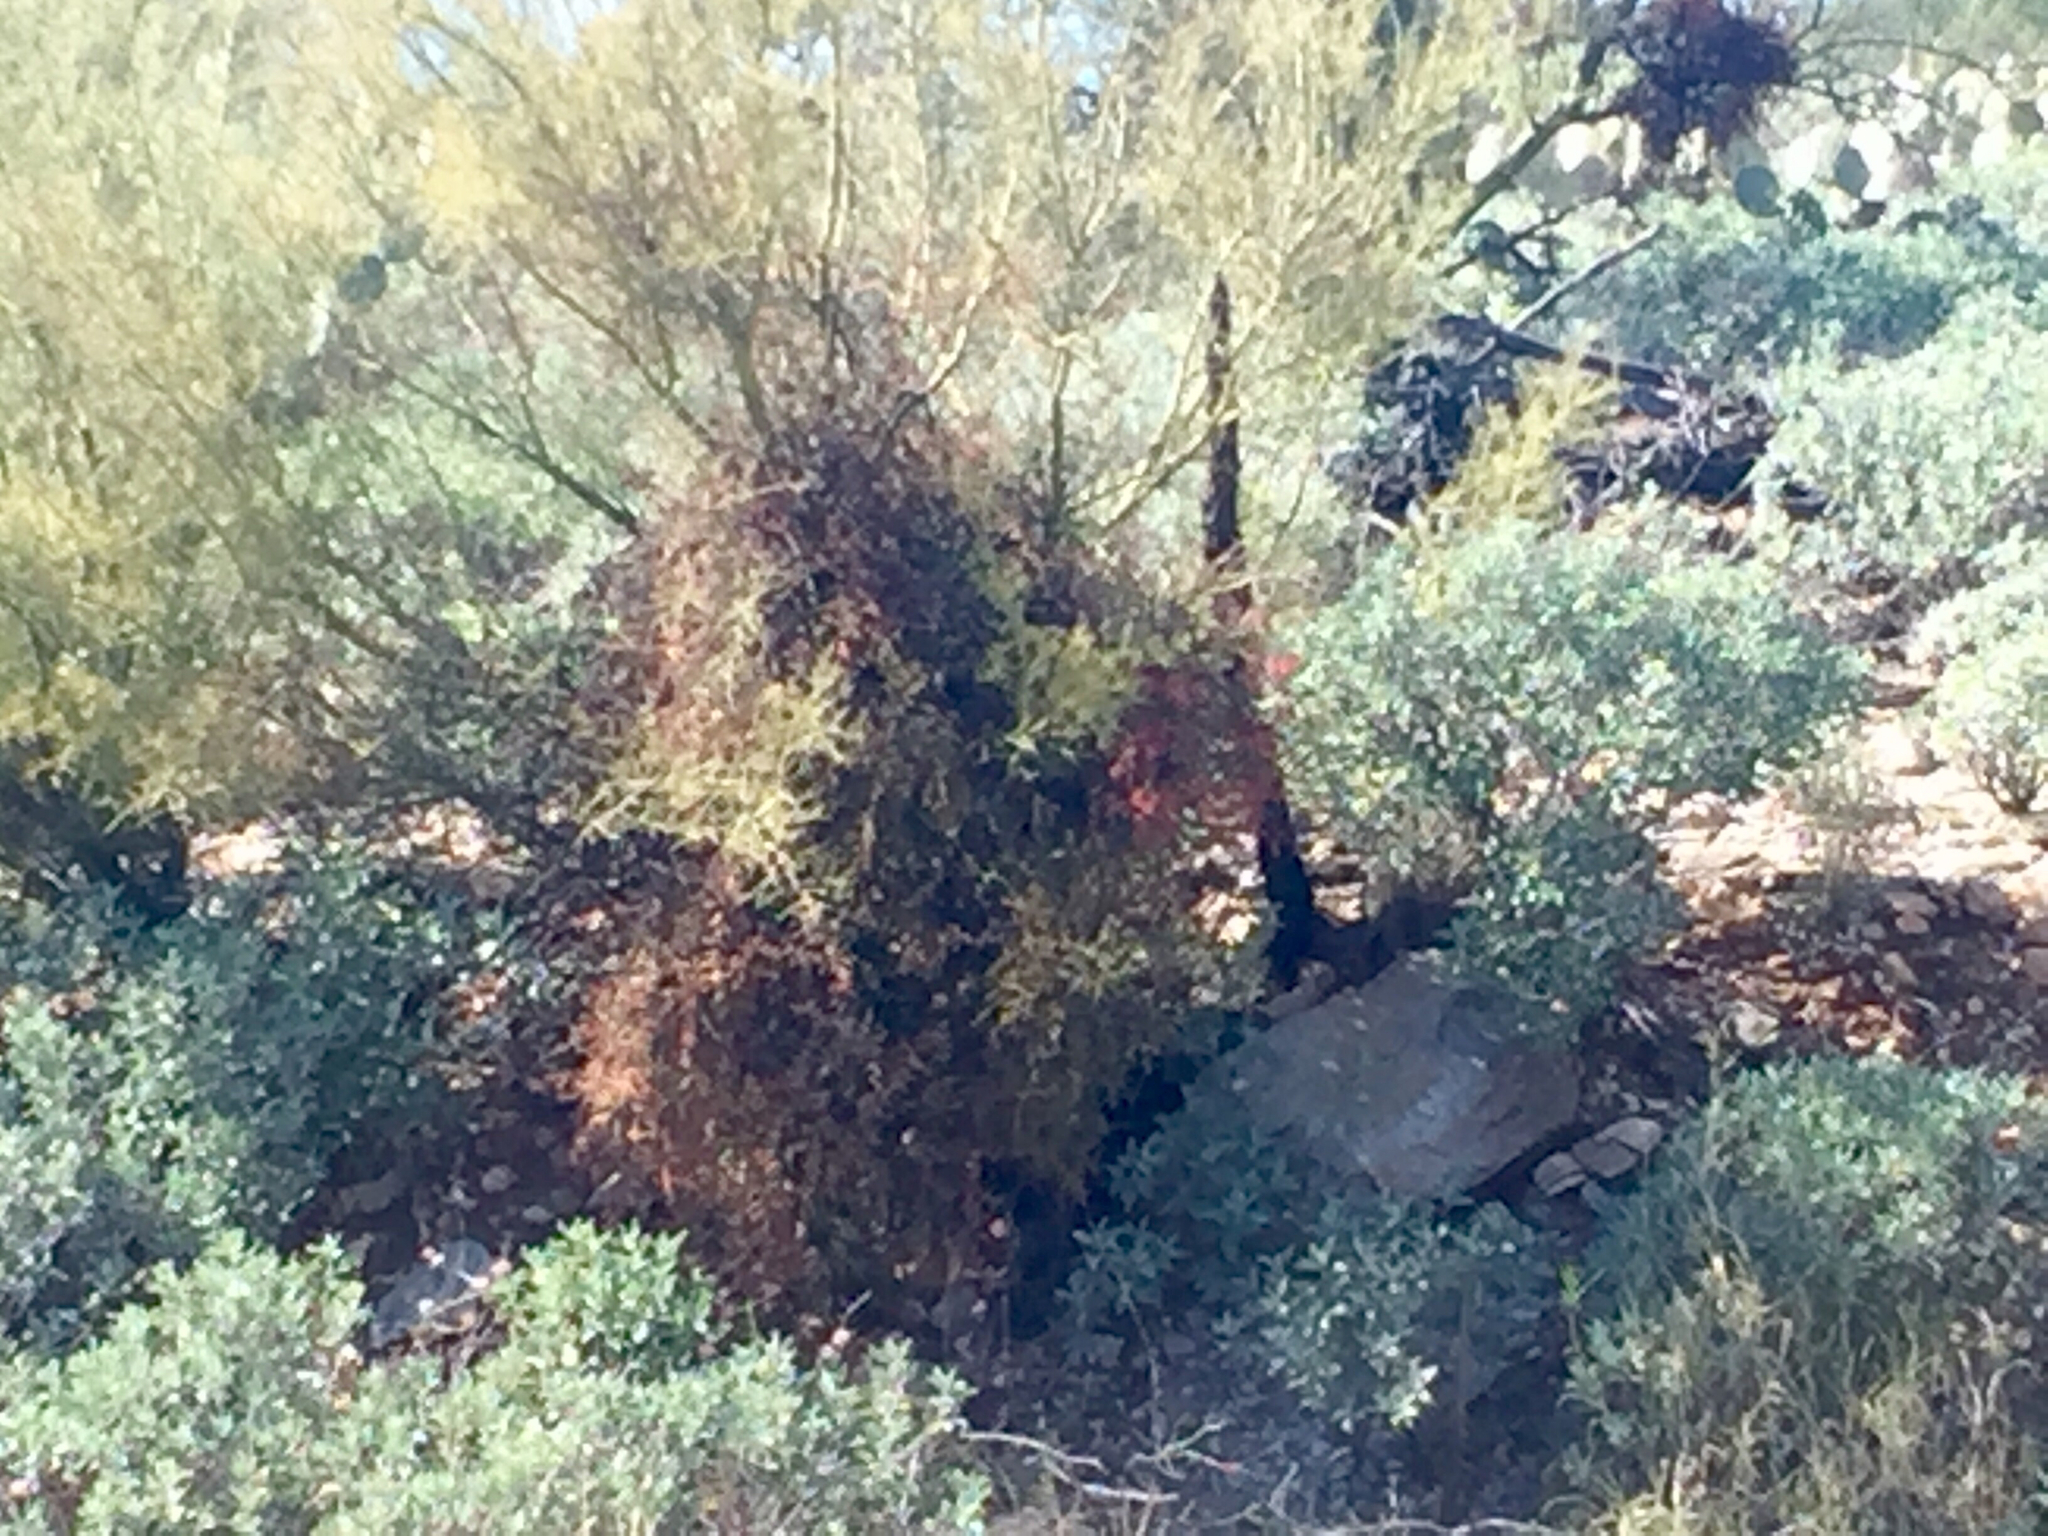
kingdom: Plantae
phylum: Tracheophyta
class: Magnoliopsida
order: Santalales
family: Viscaceae
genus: Phoradendron
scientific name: Phoradendron californicum
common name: Acacia mistletoe
